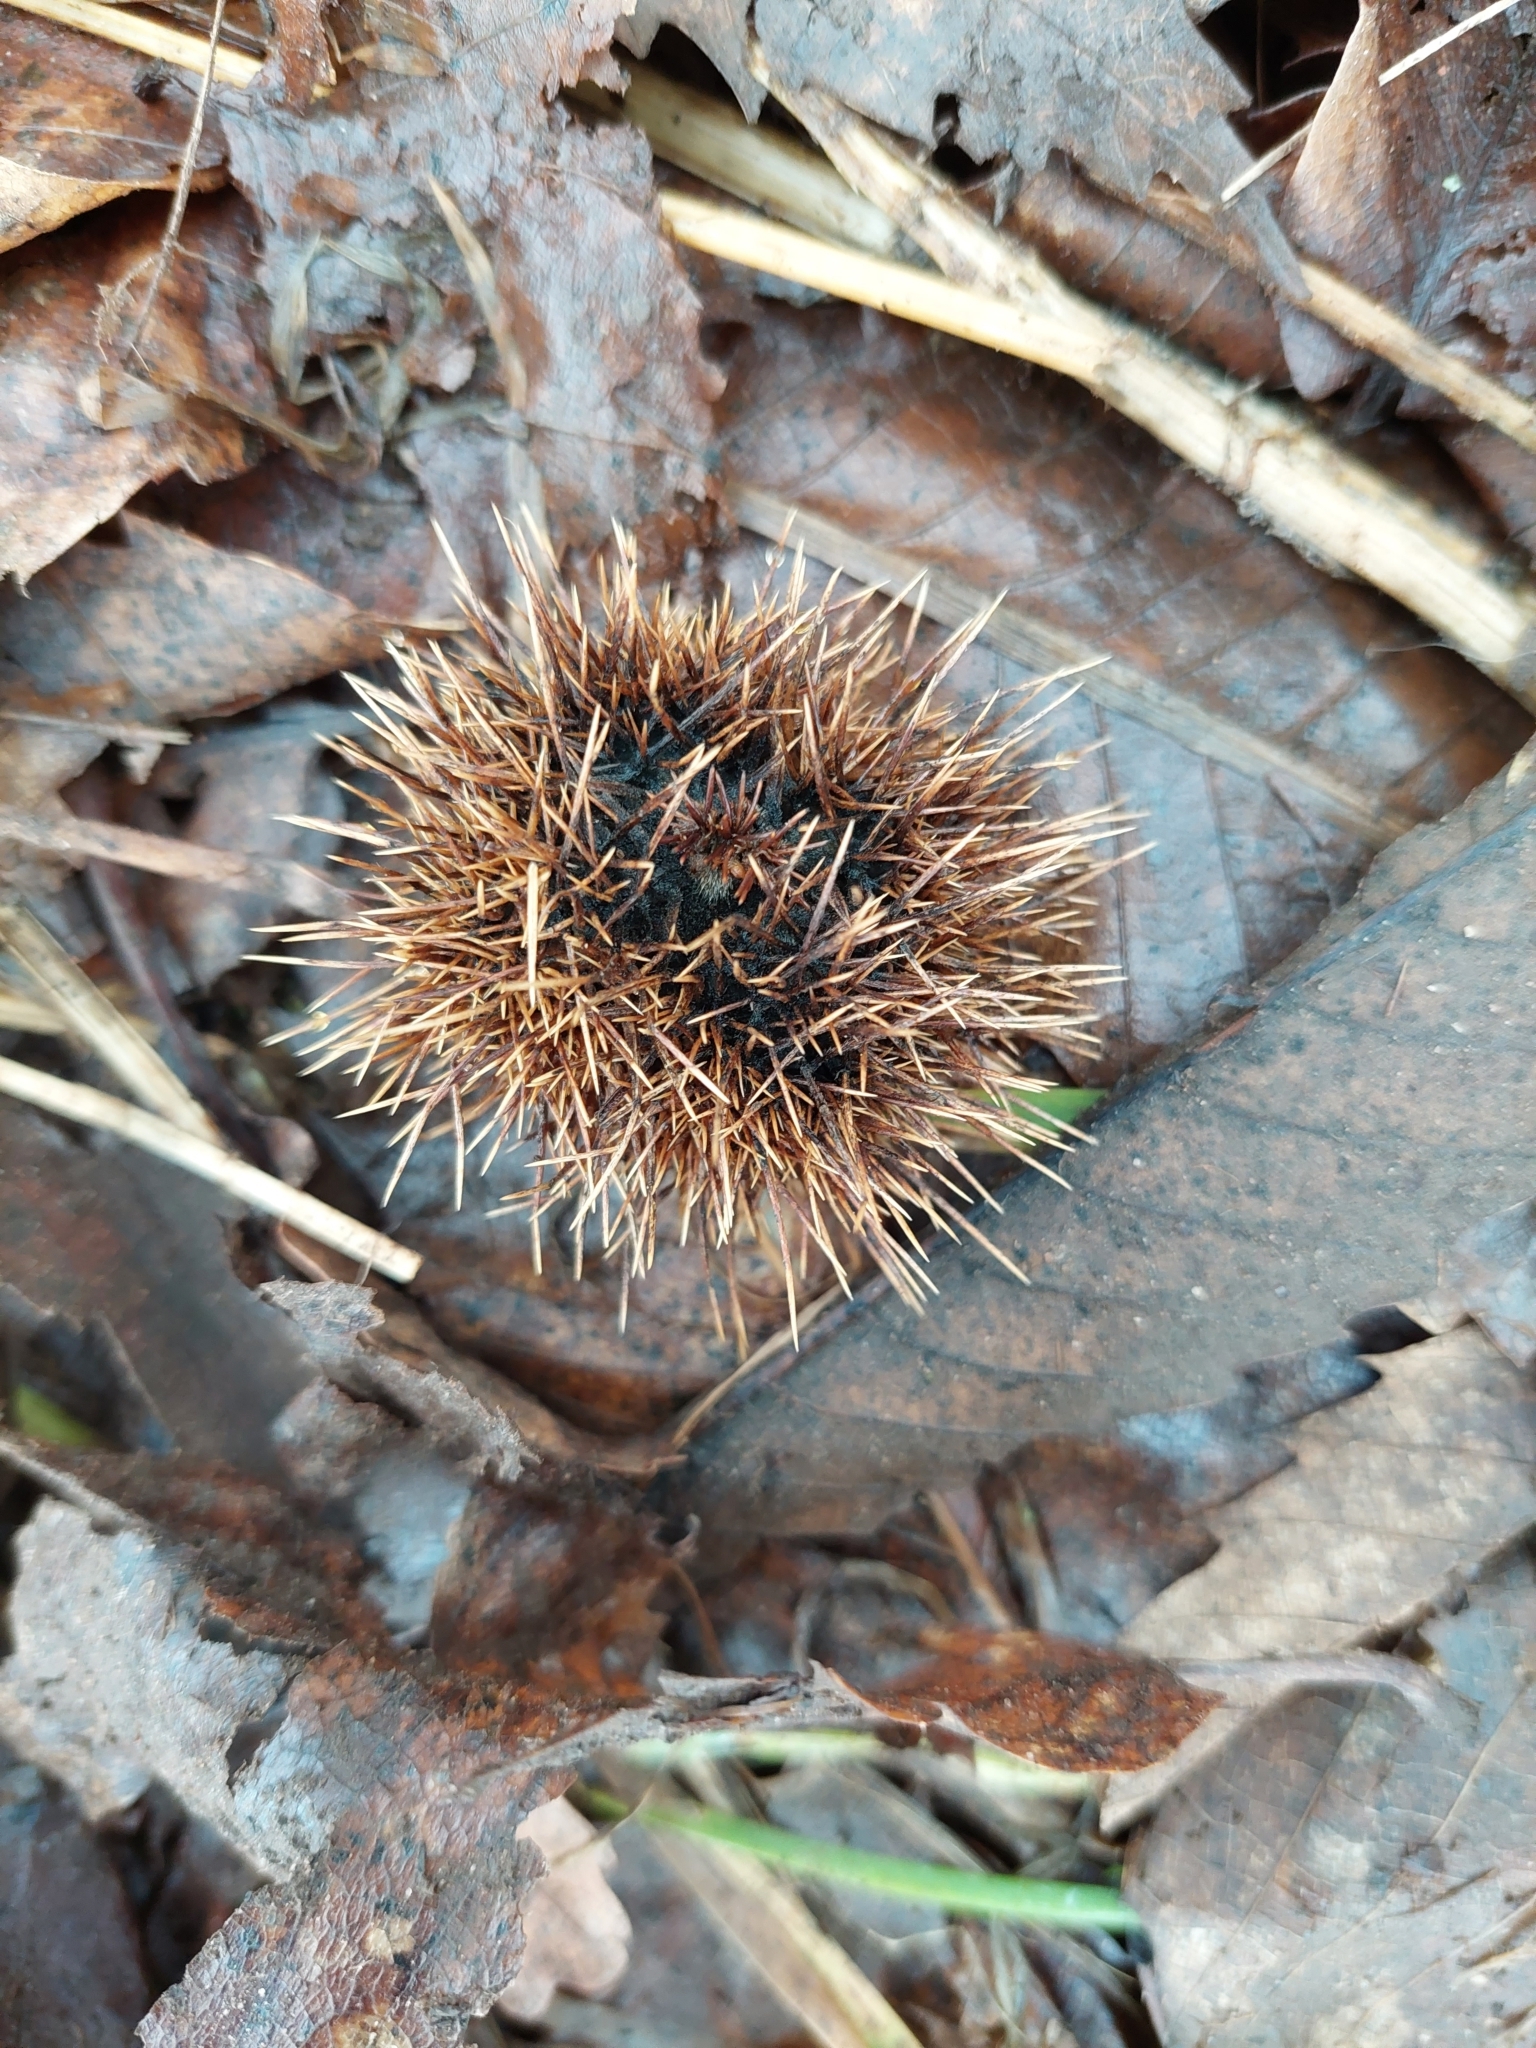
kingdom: Plantae
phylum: Tracheophyta
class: Magnoliopsida
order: Fagales
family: Fagaceae
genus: Castanea
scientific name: Castanea sativa
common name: Sweet chestnut
